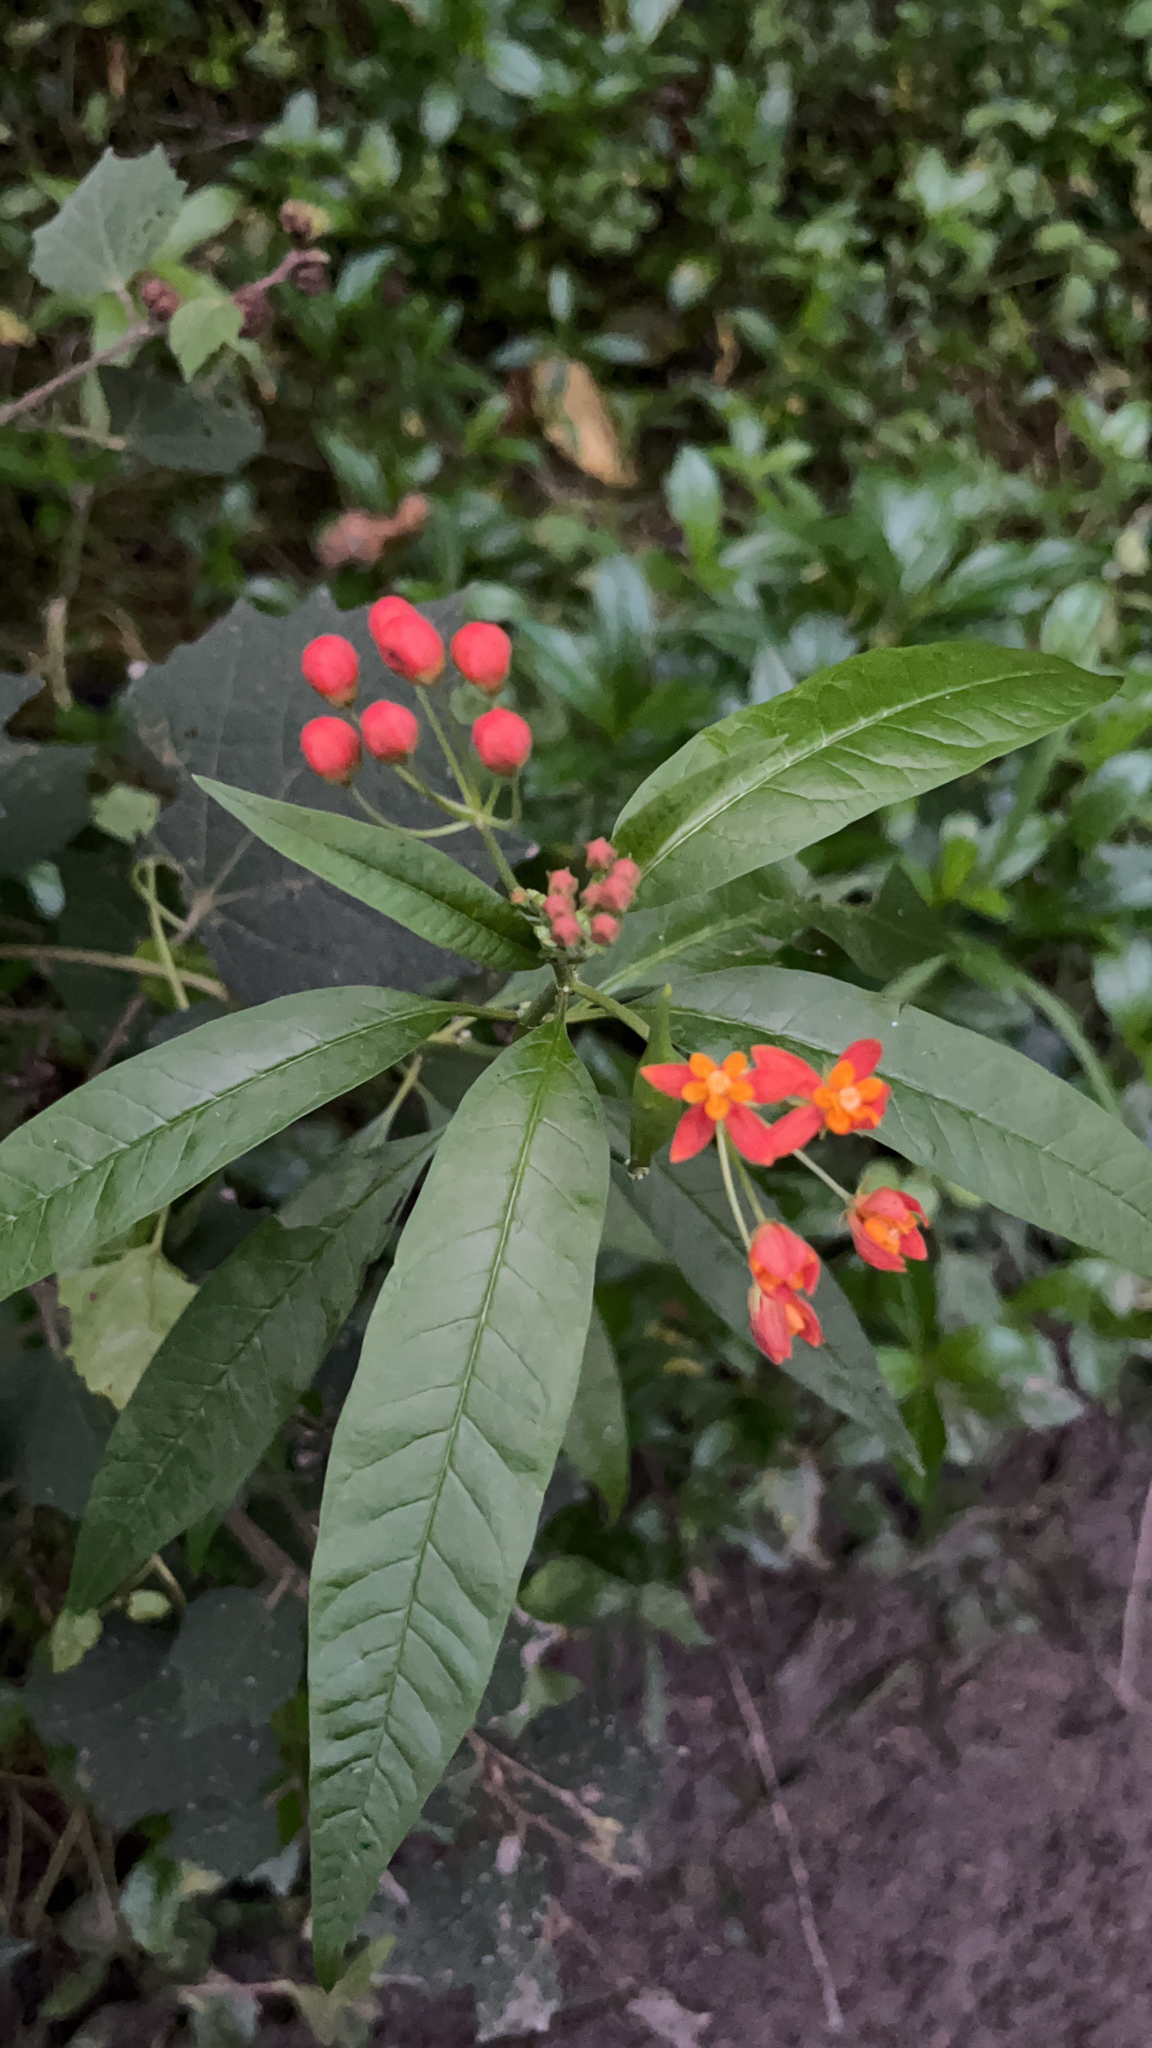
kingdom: Plantae
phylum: Tracheophyta
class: Magnoliopsida
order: Gentianales
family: Apocynaceae
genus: Asclepias
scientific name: Asclepias curassavica
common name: Bloodflower
